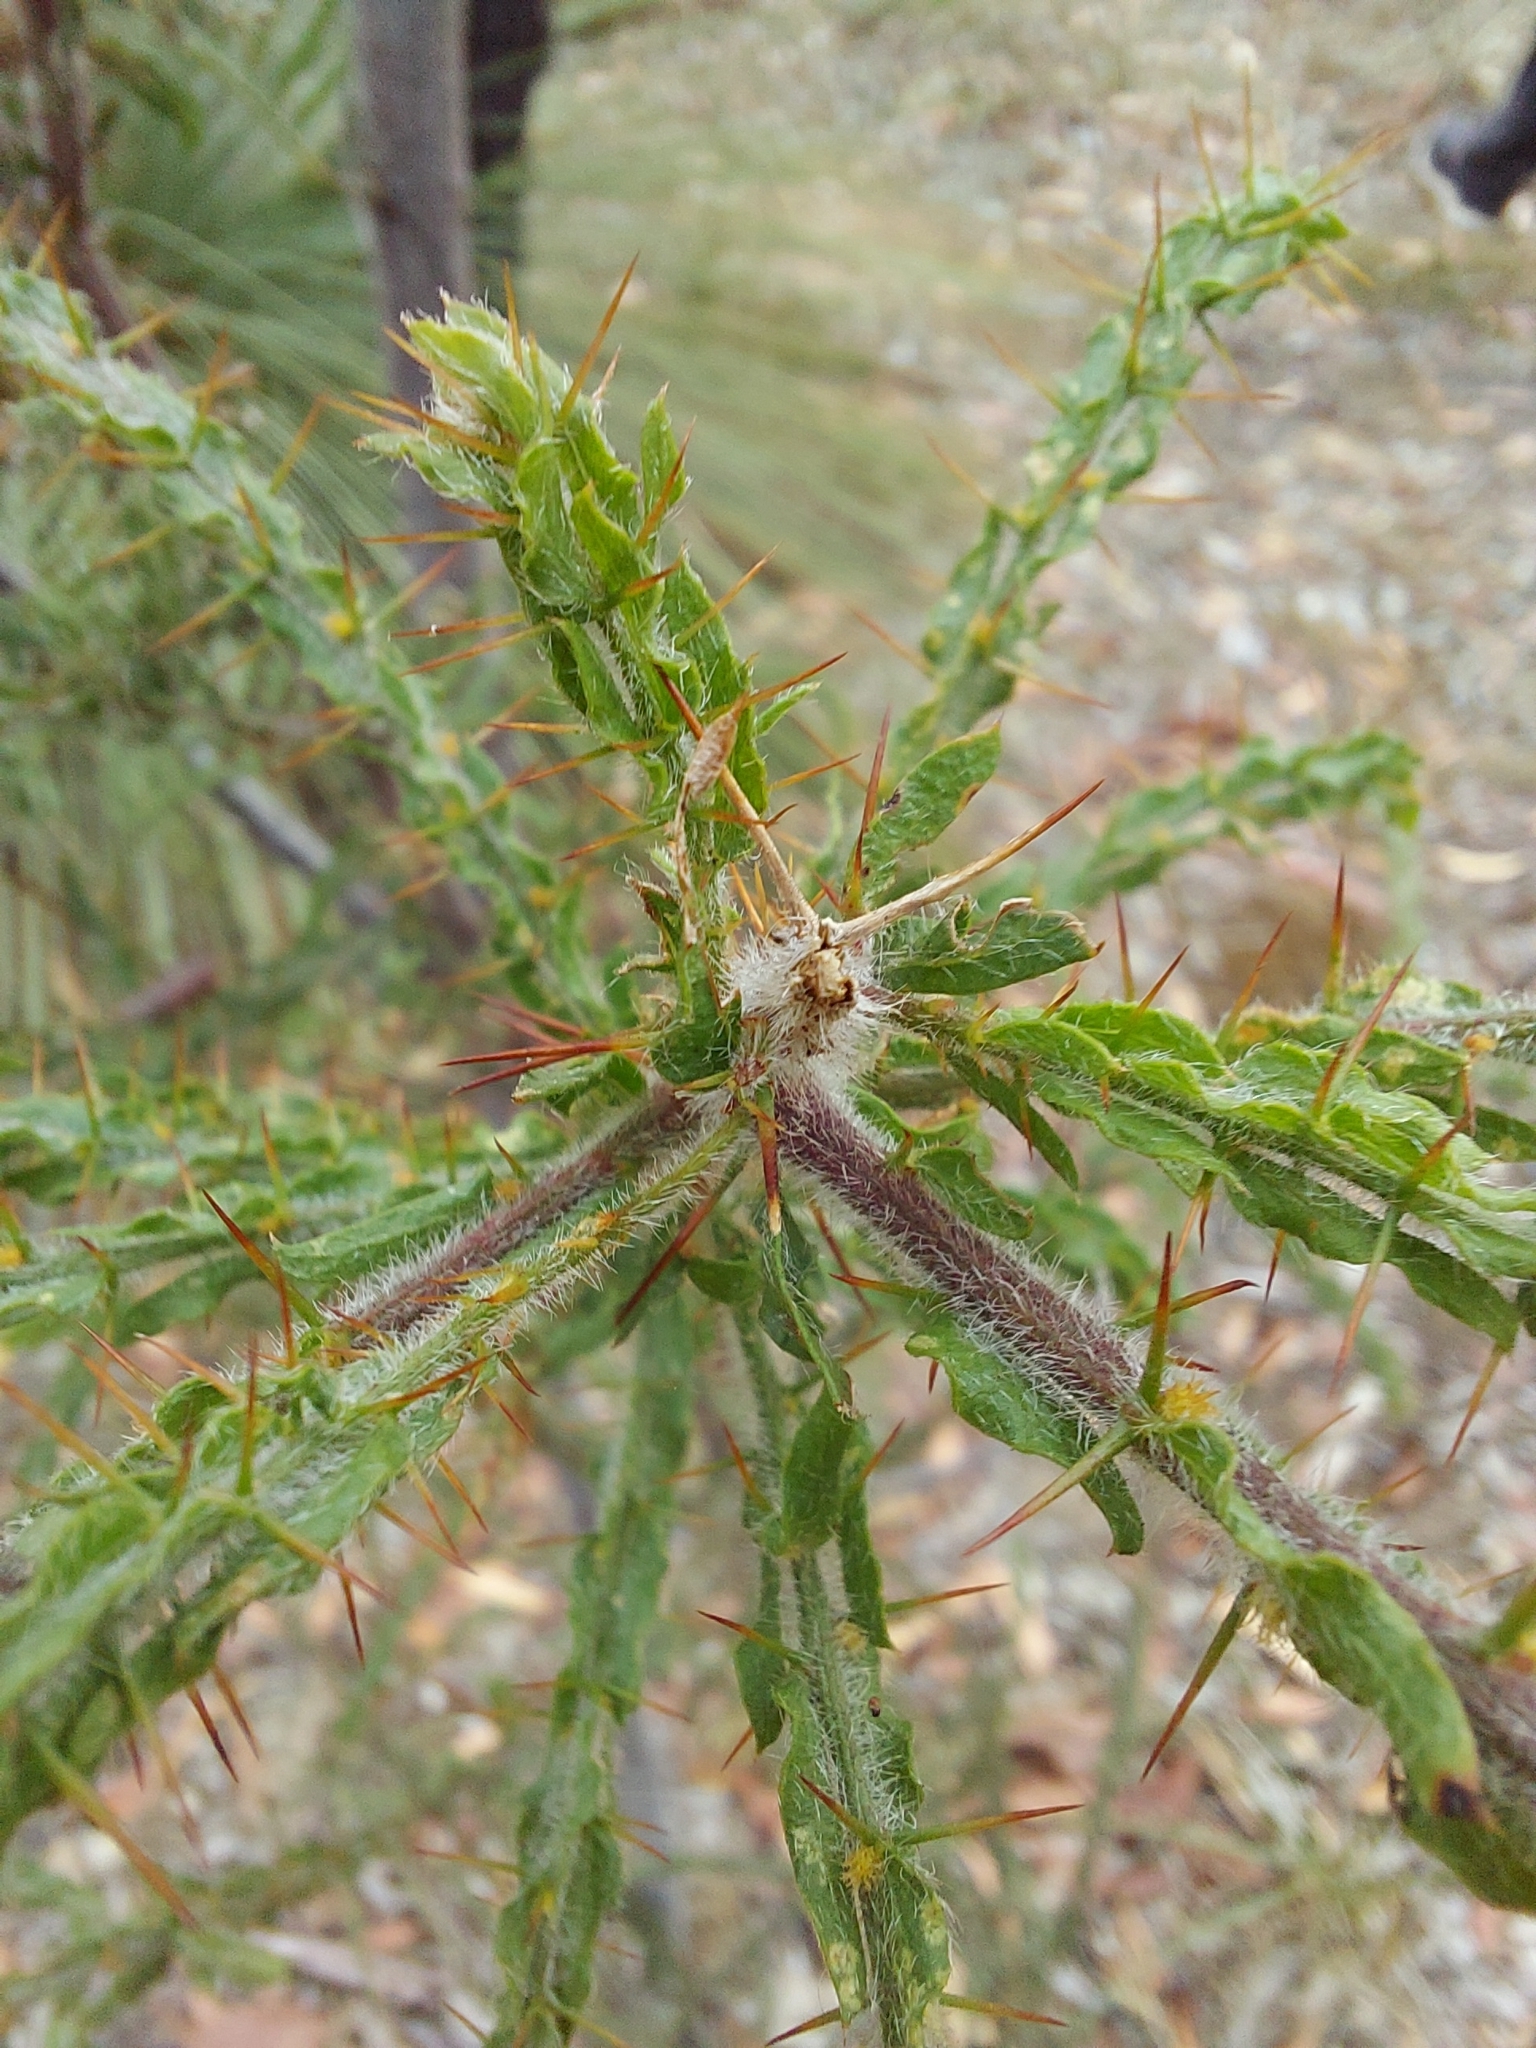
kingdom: Plantae
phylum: Tracheophyta
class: Magnoliopsida
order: Fabales
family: Fabaceae
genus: Acacia
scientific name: Acacia paradoxa
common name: Paradox acacia
